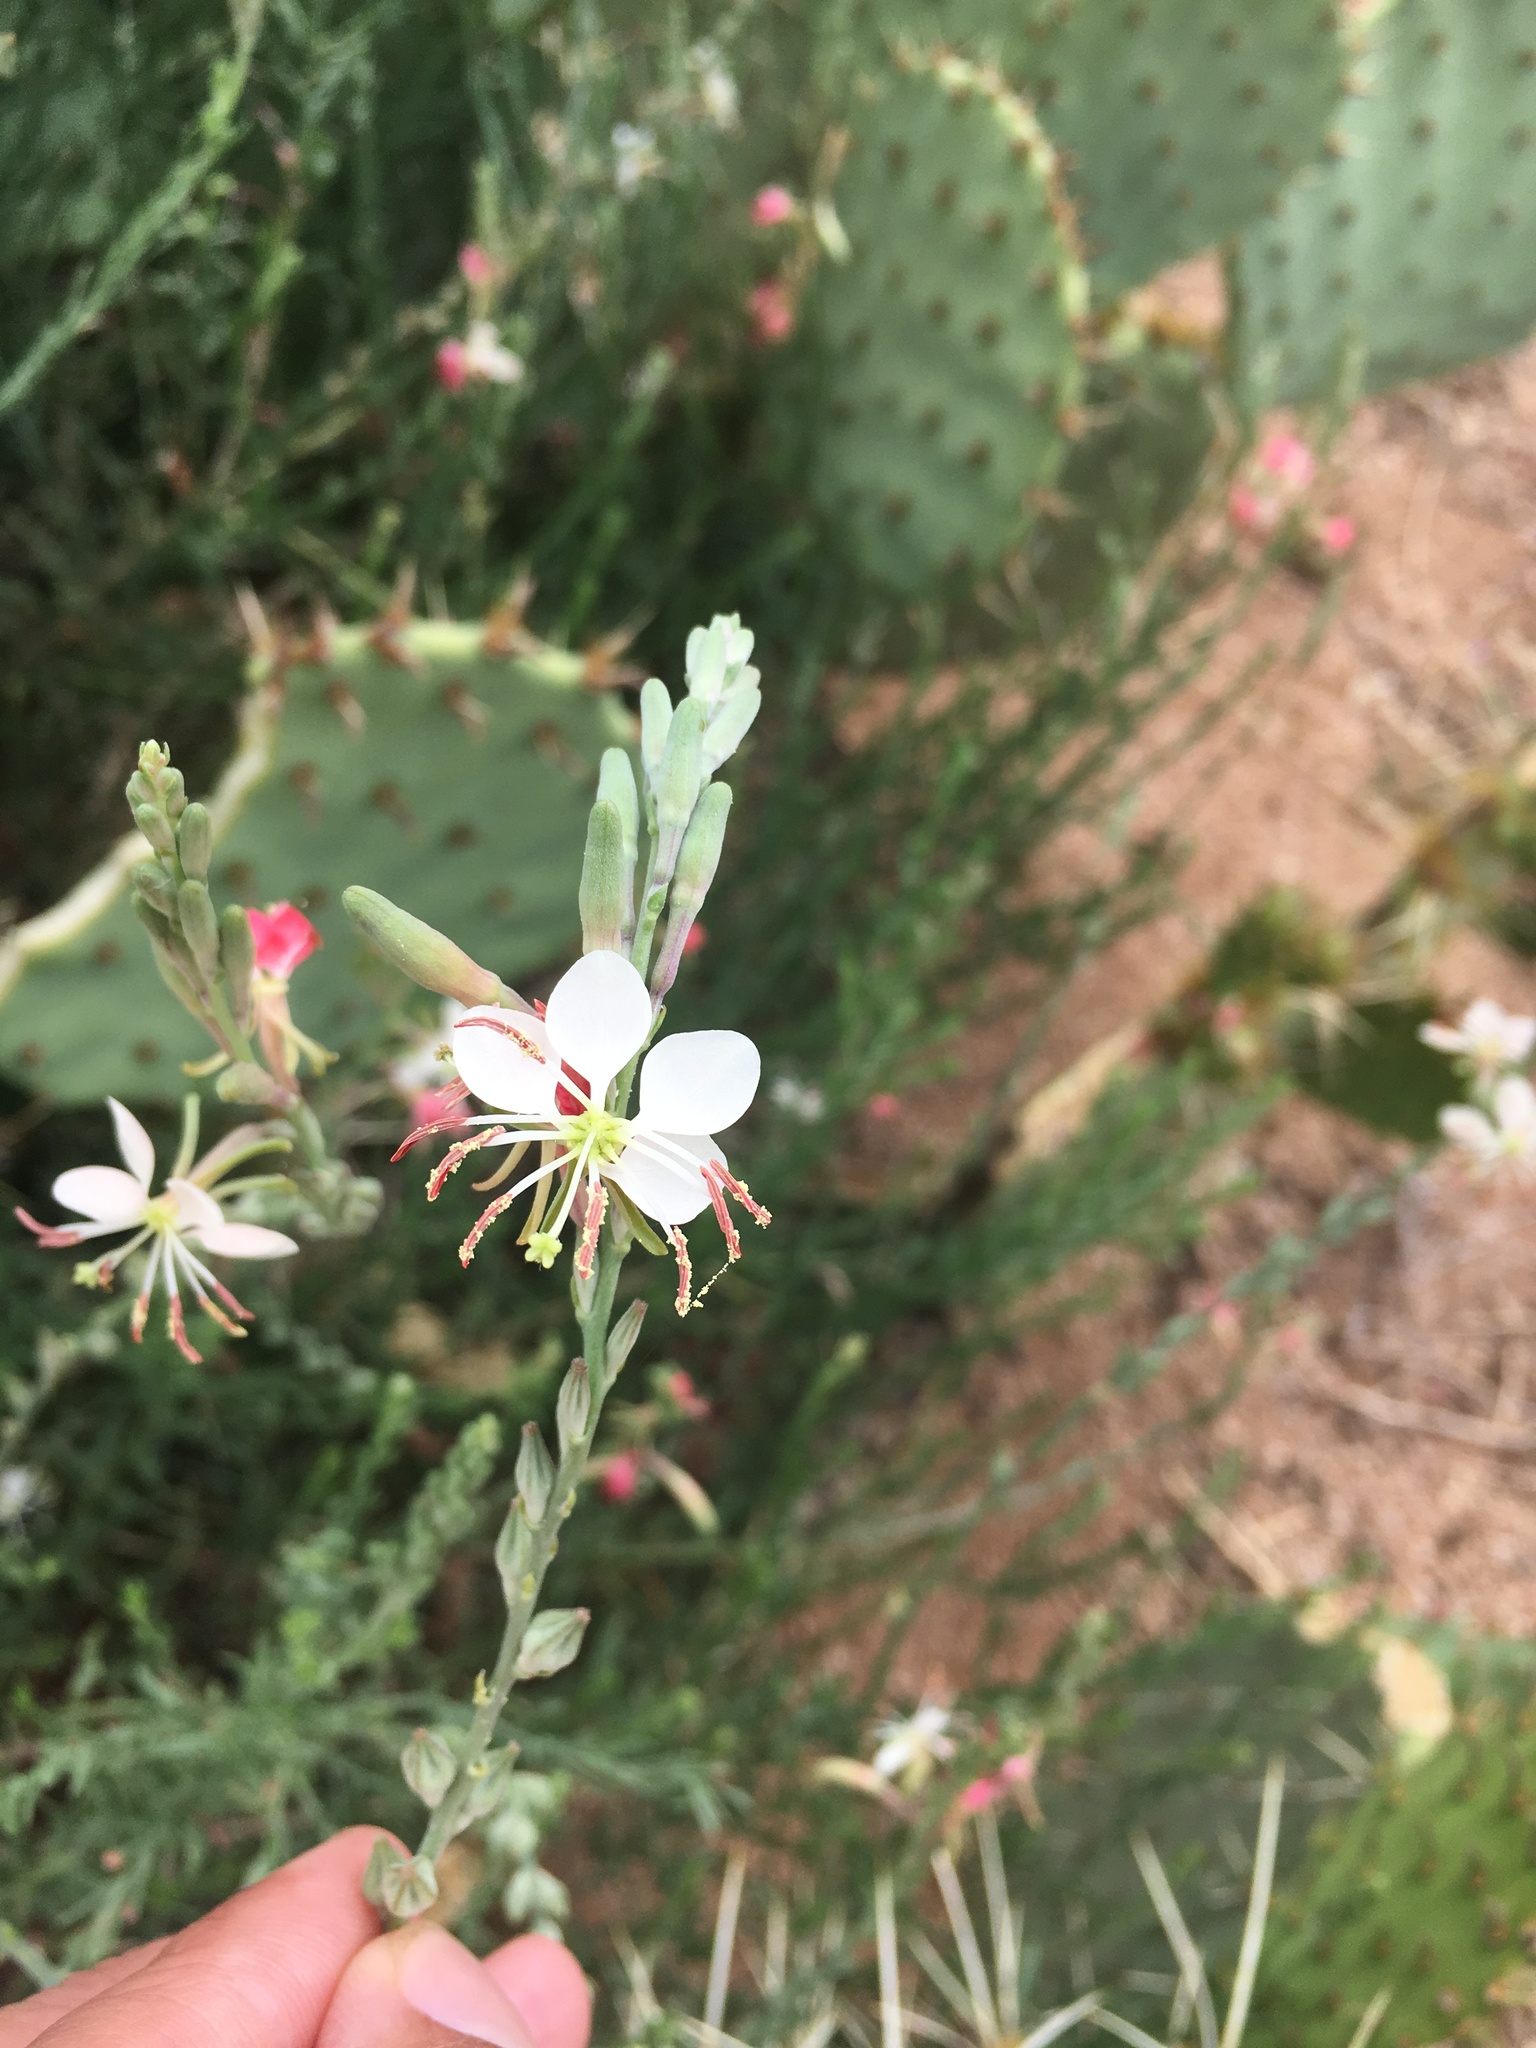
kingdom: Plantae
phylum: Tracheophyta
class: Magnoliopsida
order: Myrtales
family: Onagraceae
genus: Oenothera
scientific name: Oenothera suffrutescens
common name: Scarlet beeblossom
